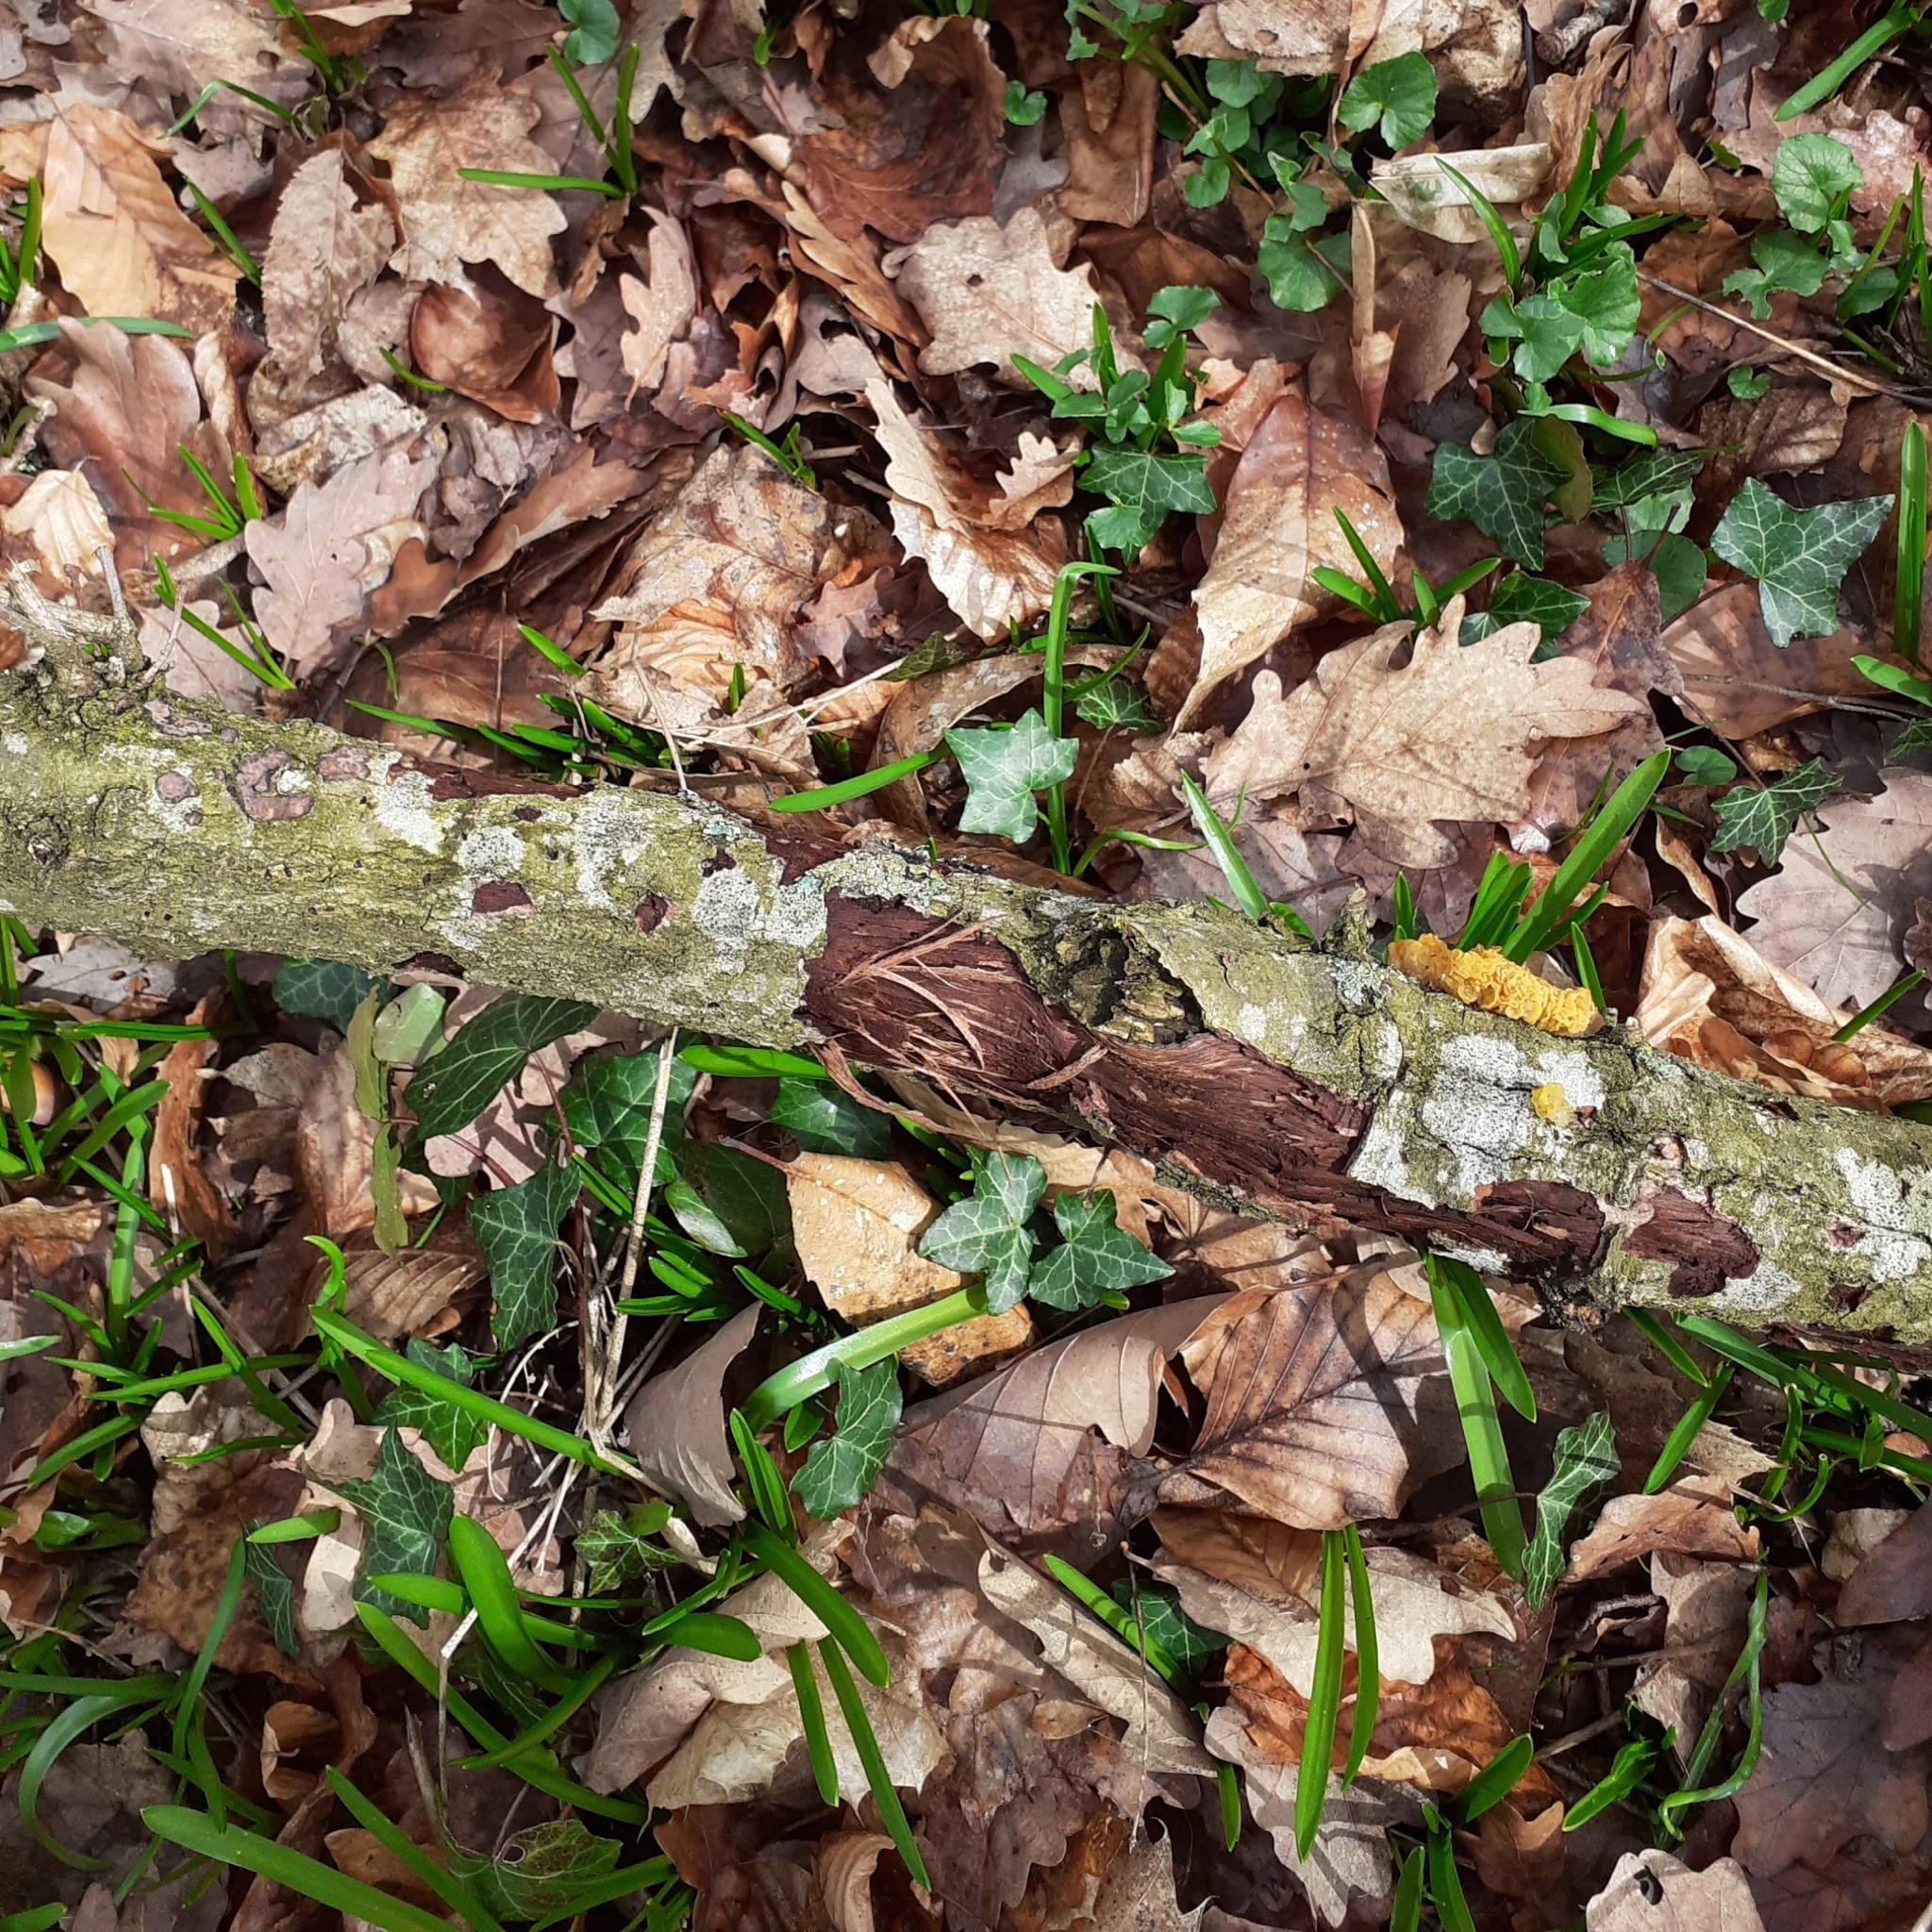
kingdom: Fungi
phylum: Basidiomycota
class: Tremellomycetes
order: Tremellales
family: Tremellaceae
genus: Tremella
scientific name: Tremella mesenterica
